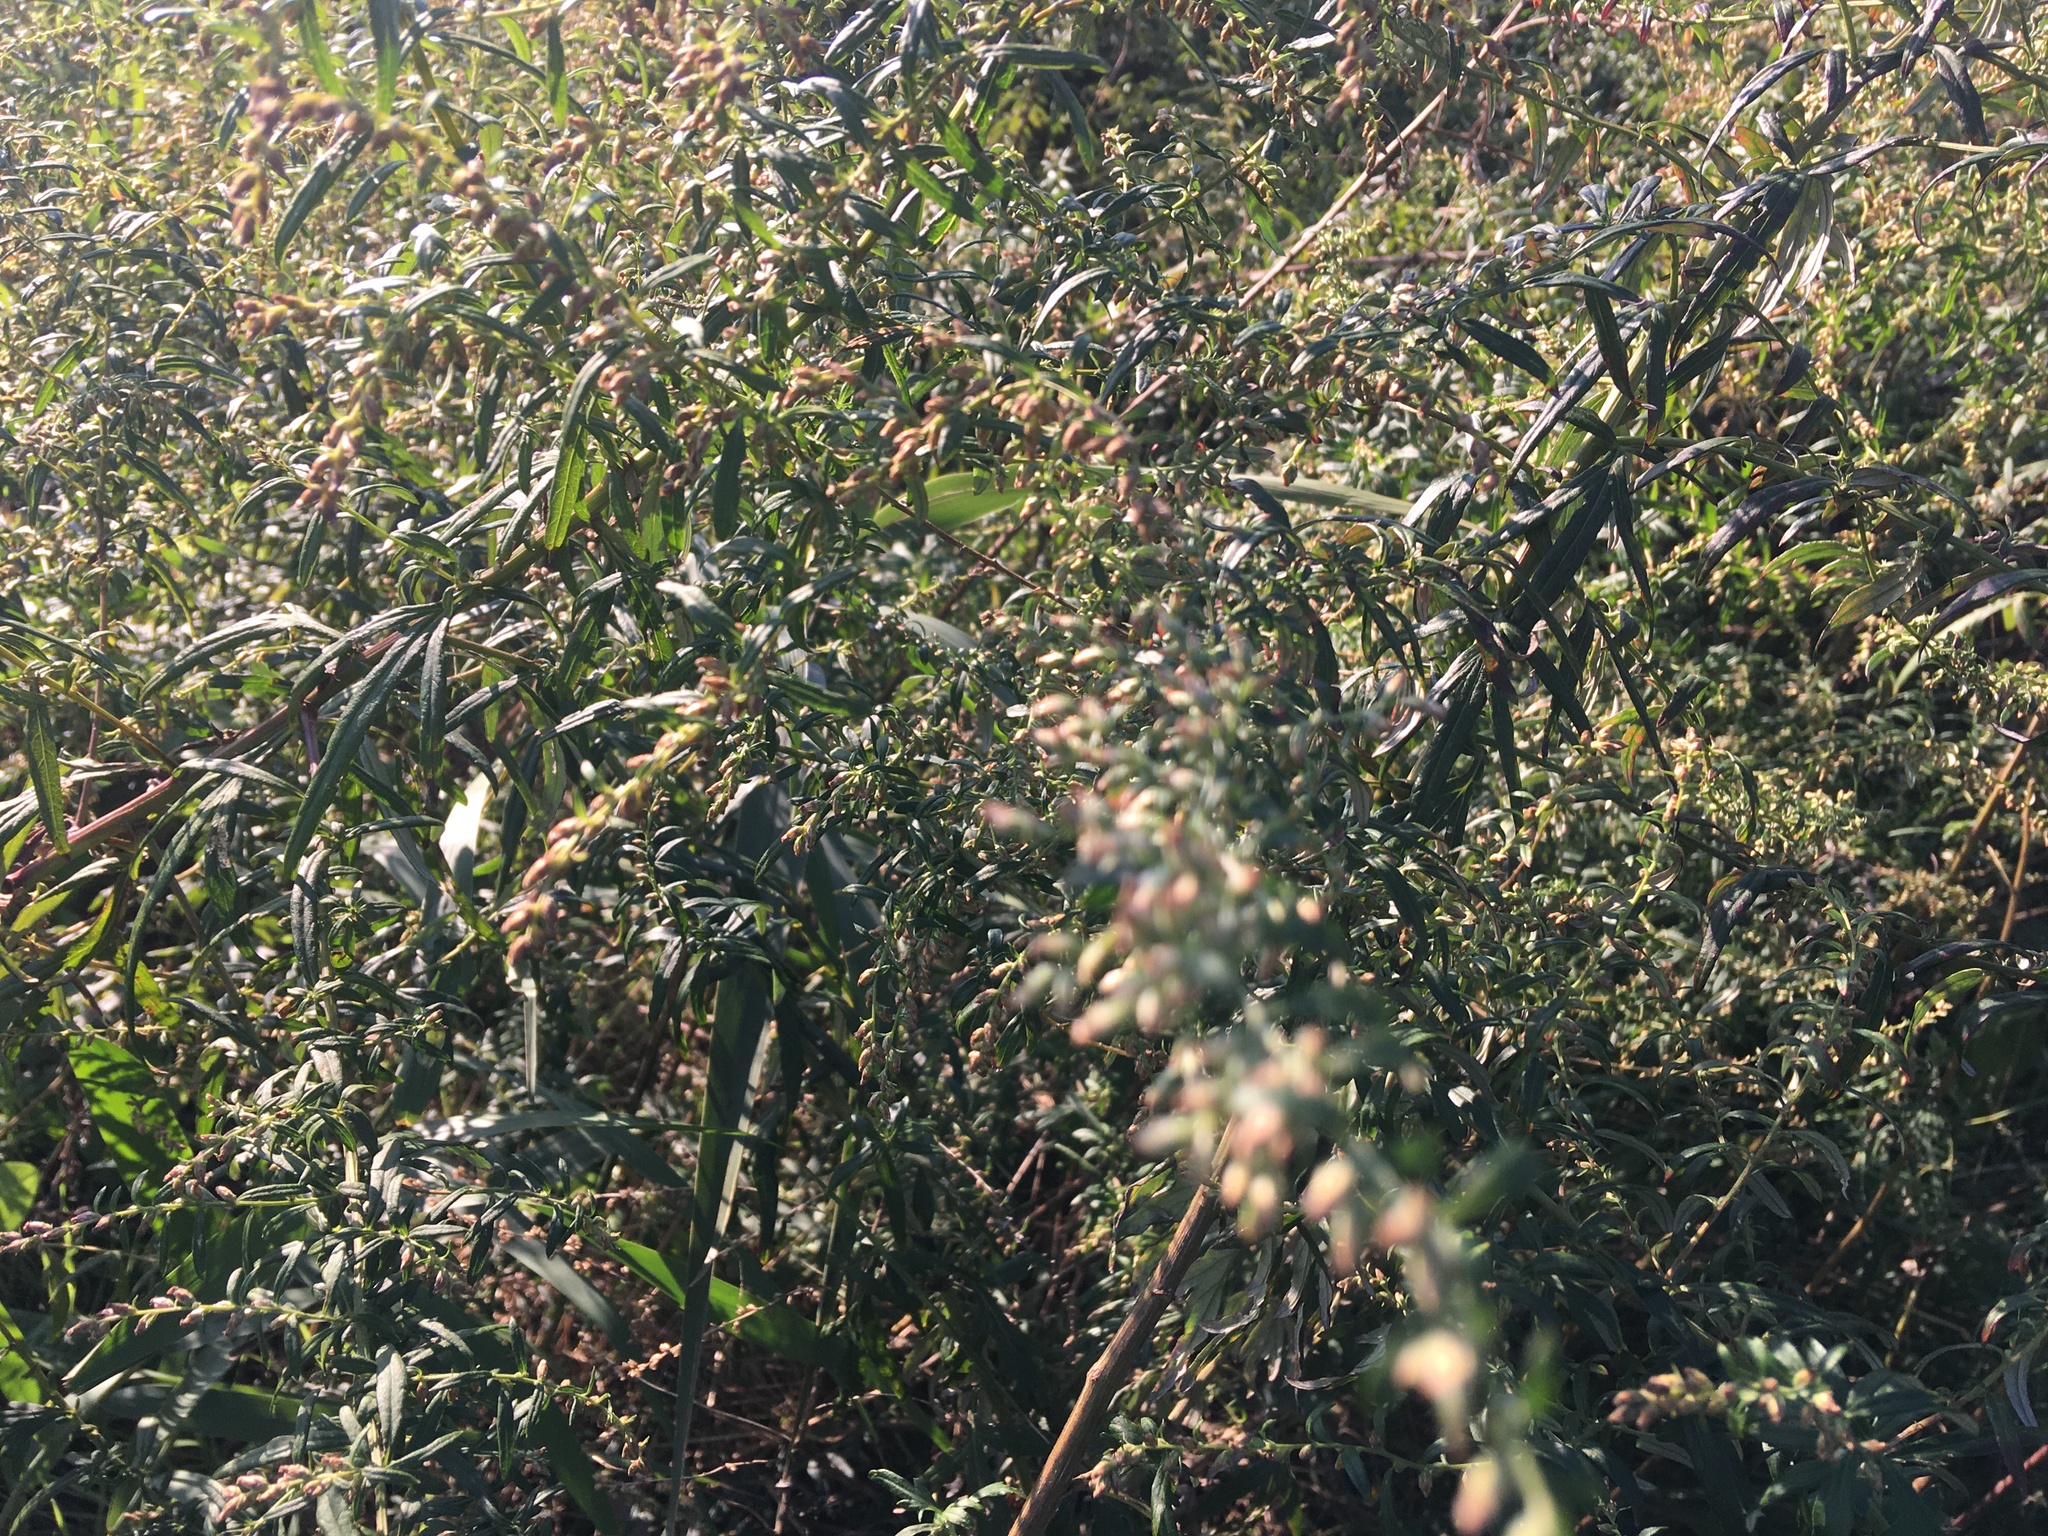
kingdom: Plantae
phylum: Tracheophyta
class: Magnoliopsida
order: Asterales
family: Asteraceae
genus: Artemisia
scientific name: Artemisia vulgaris
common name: Mugwort
